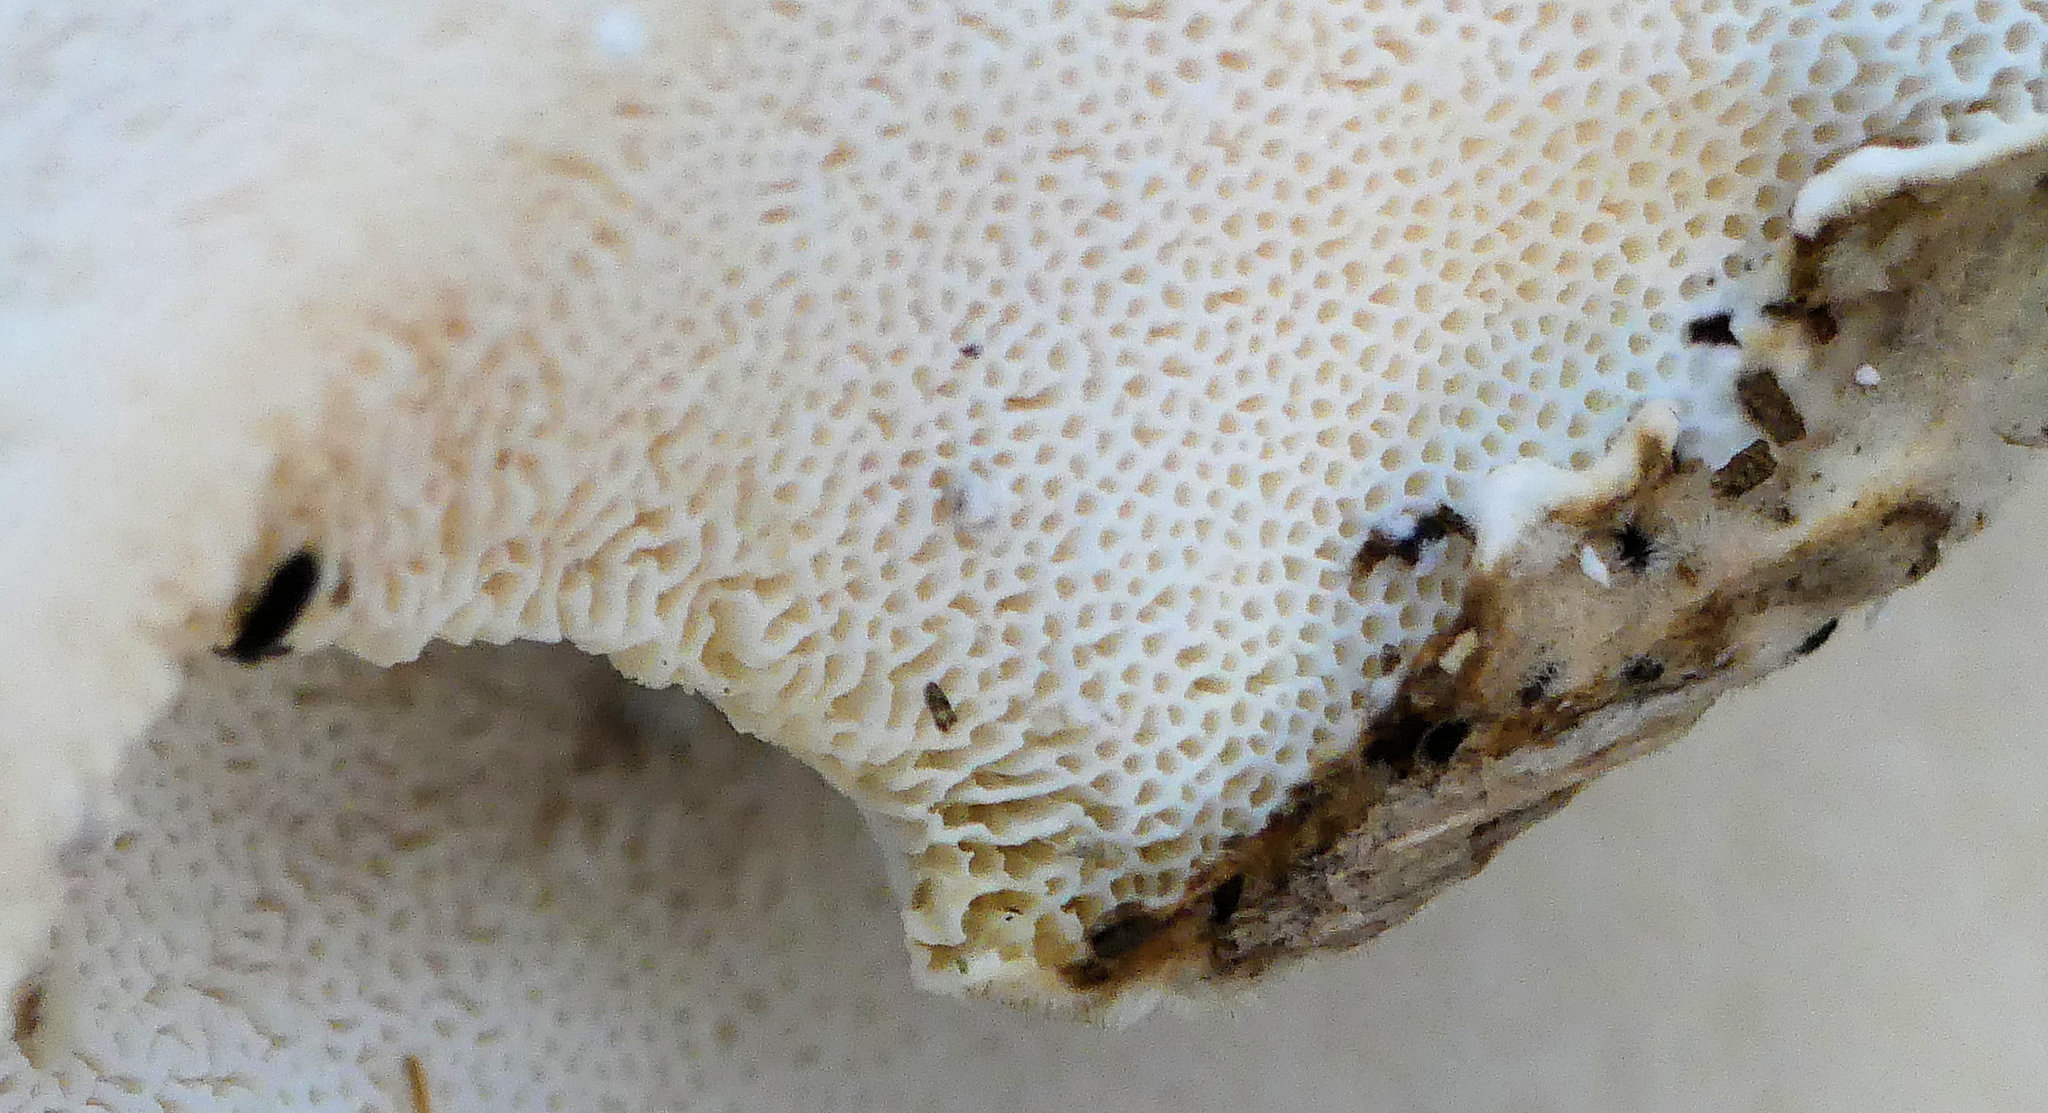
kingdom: Fungi
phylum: Basidiomycota
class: Agaricomycetes
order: Polyporales
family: Polyporaceae
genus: Trametes
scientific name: Trametes versicolor
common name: Turkeytail
